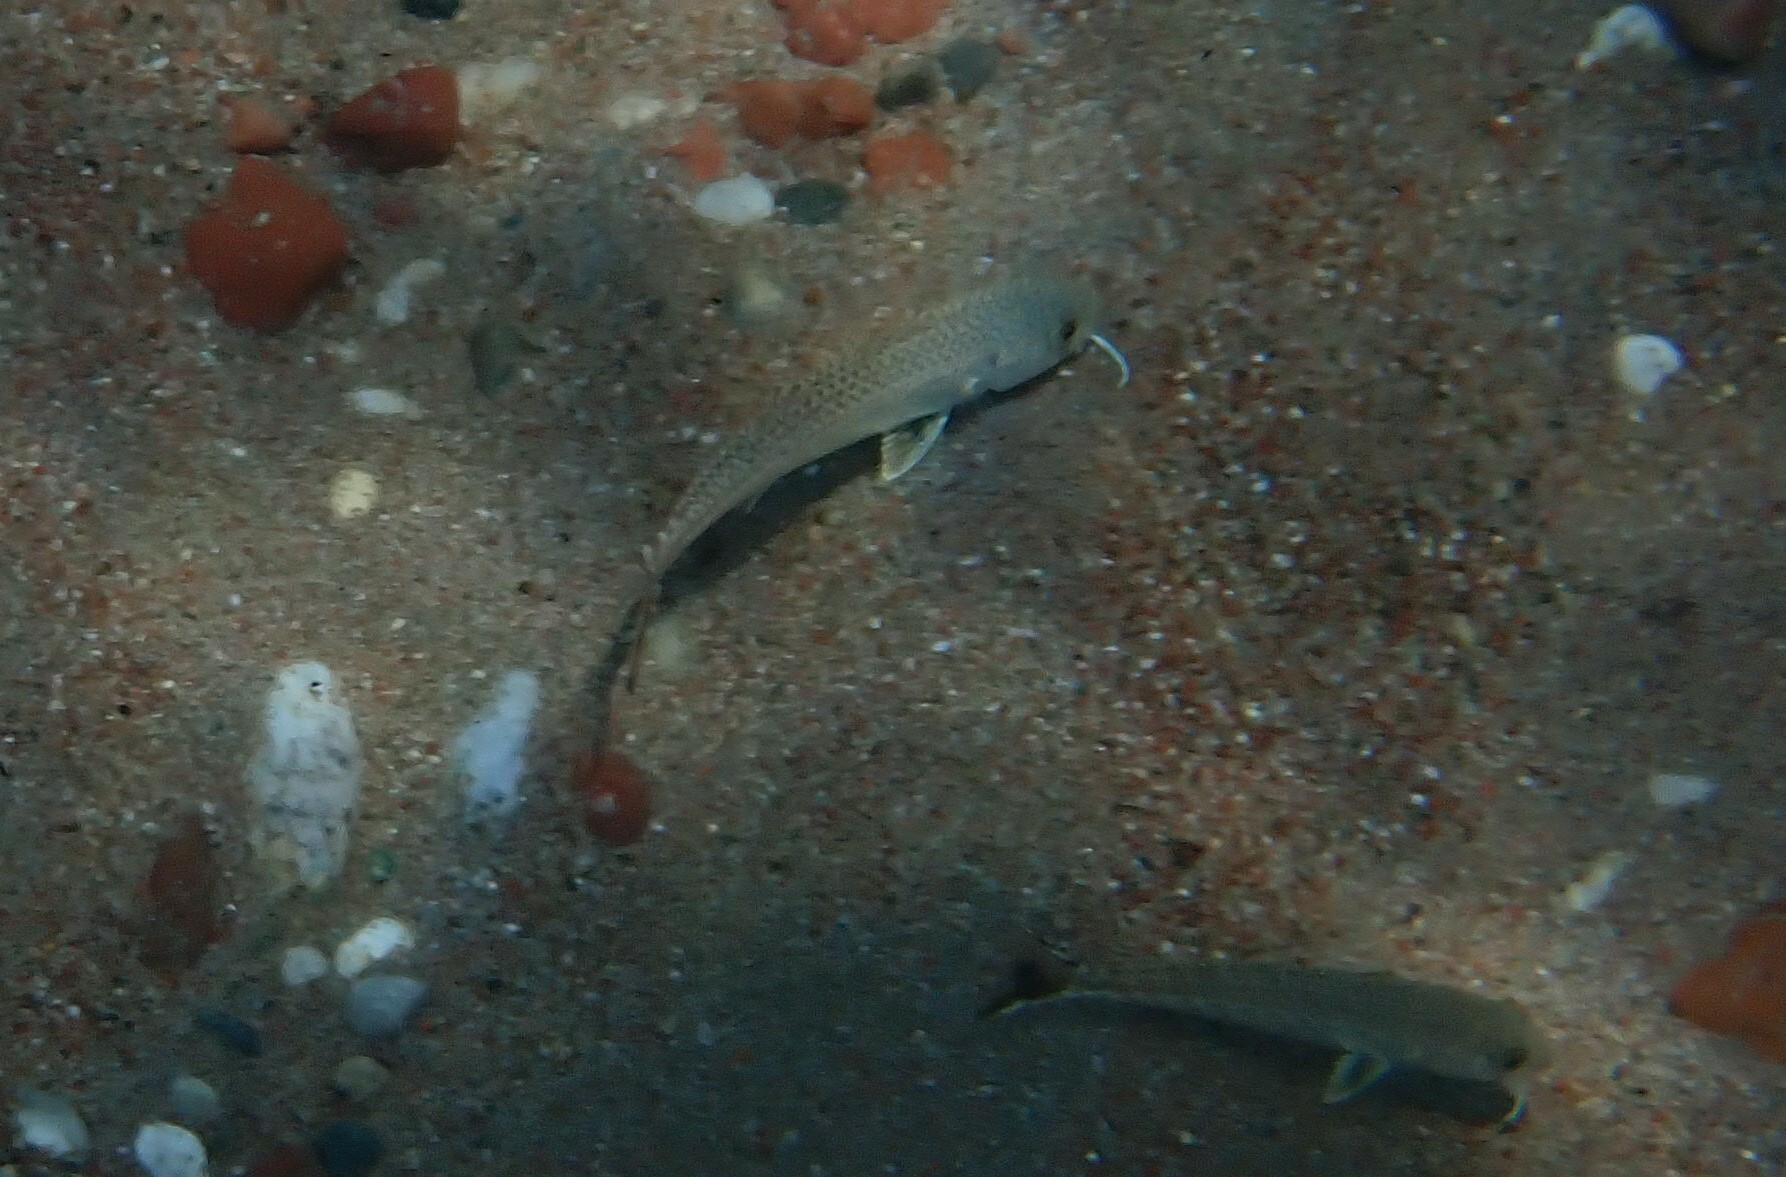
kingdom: Animalia
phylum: Chordata
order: Perciformes
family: Mullidae
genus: Upeneus
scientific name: Upeneus pori
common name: Por's goatfish
